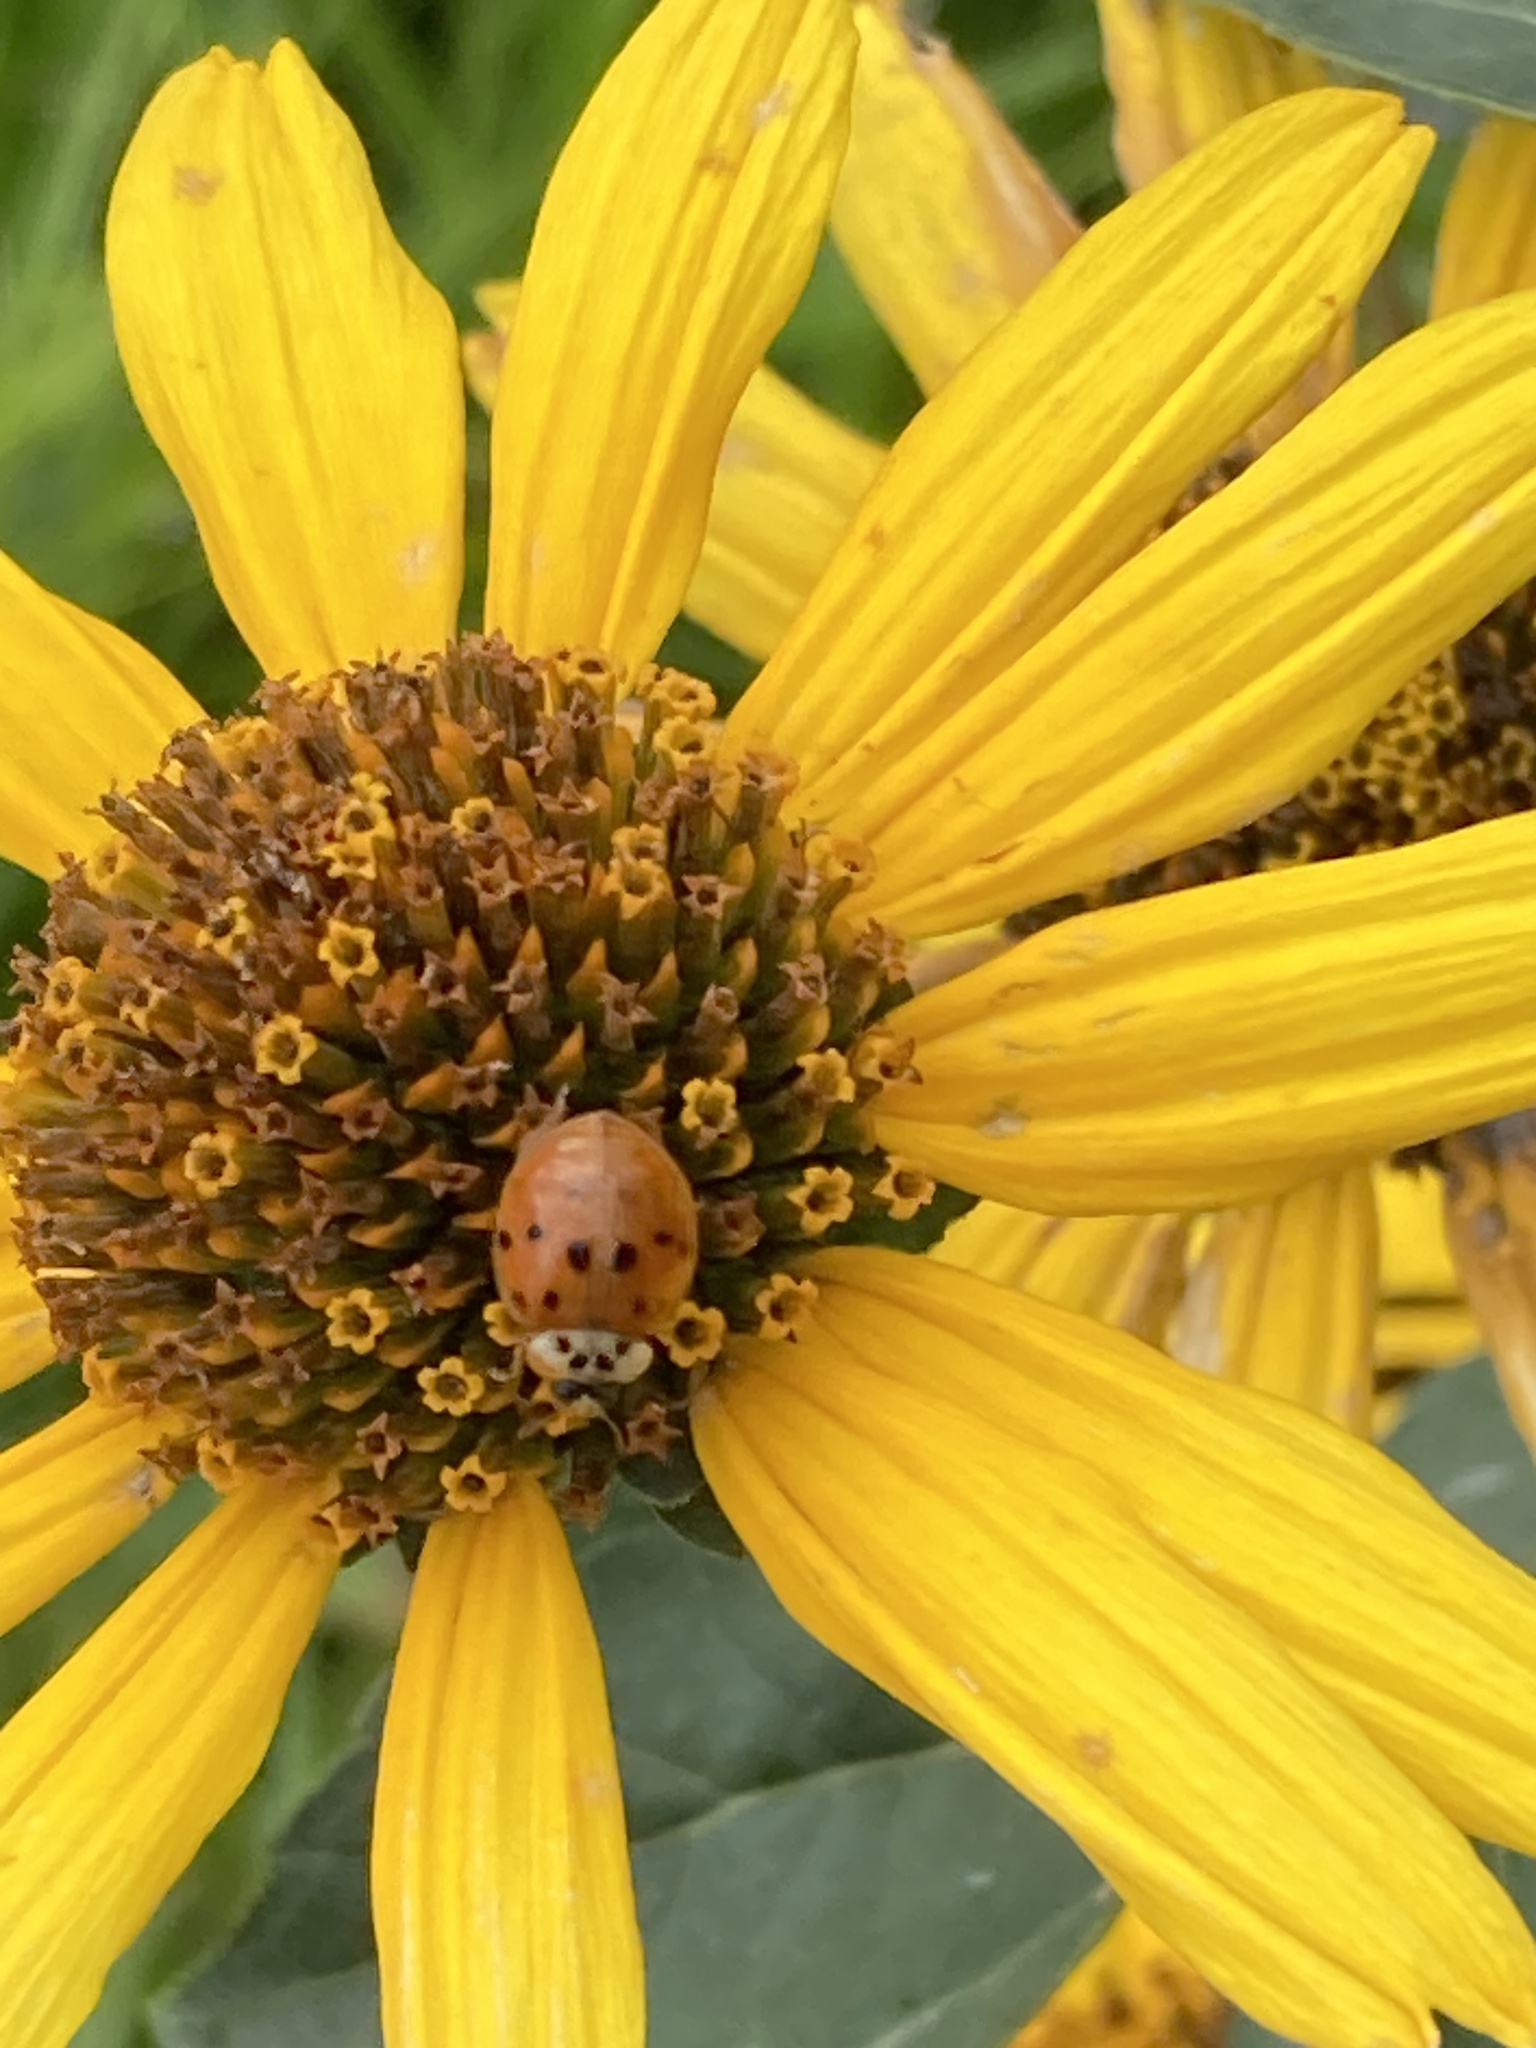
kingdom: Animalia
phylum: Arthropoda
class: Insecta
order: Coleoptera
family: Coccinellidae
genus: Harmonia
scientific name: Harmonia axyridis
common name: Harlequin ladybird
